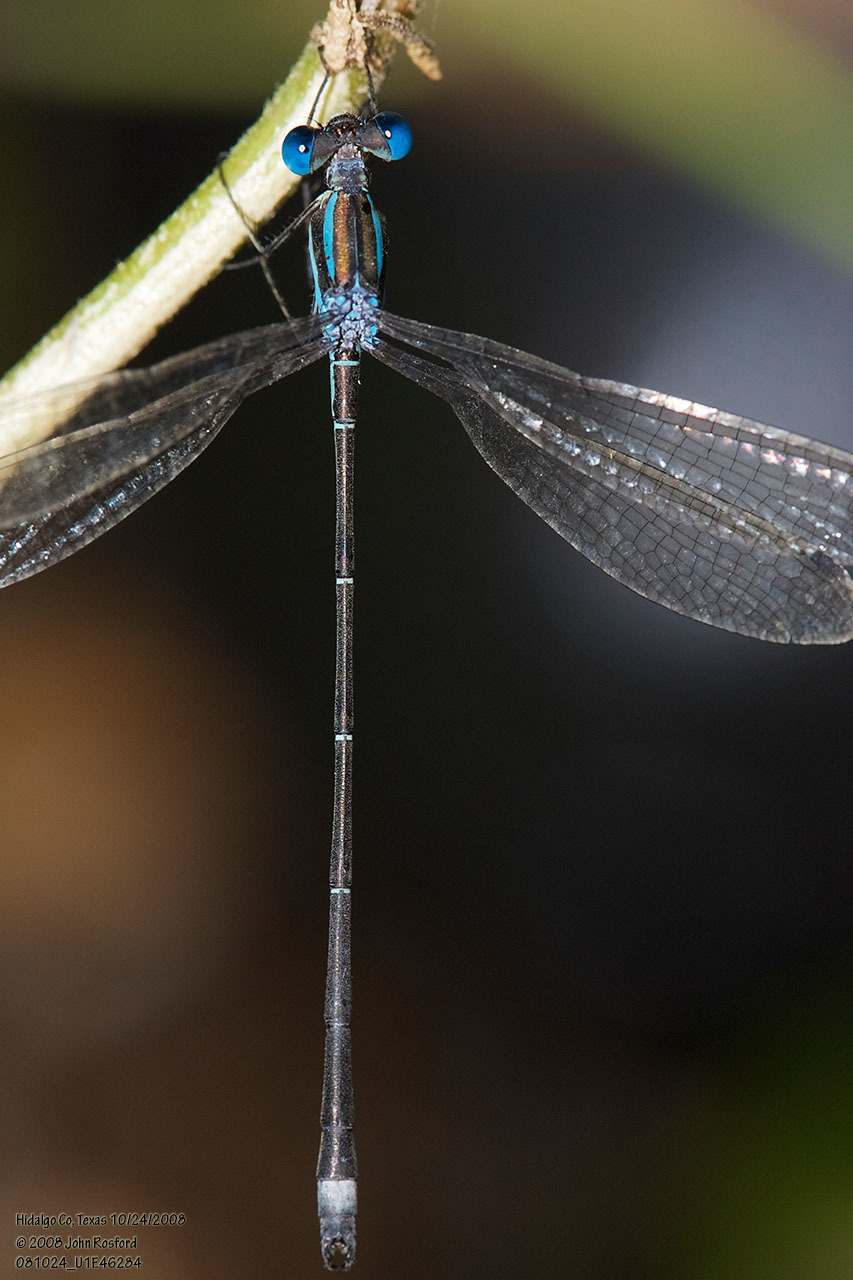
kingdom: Animalia
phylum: Arthropoda
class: Insecta
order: Odonata
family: Lestidae
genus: Lestes
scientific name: Lestes tenuatus
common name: Blue-striped spreadwing
